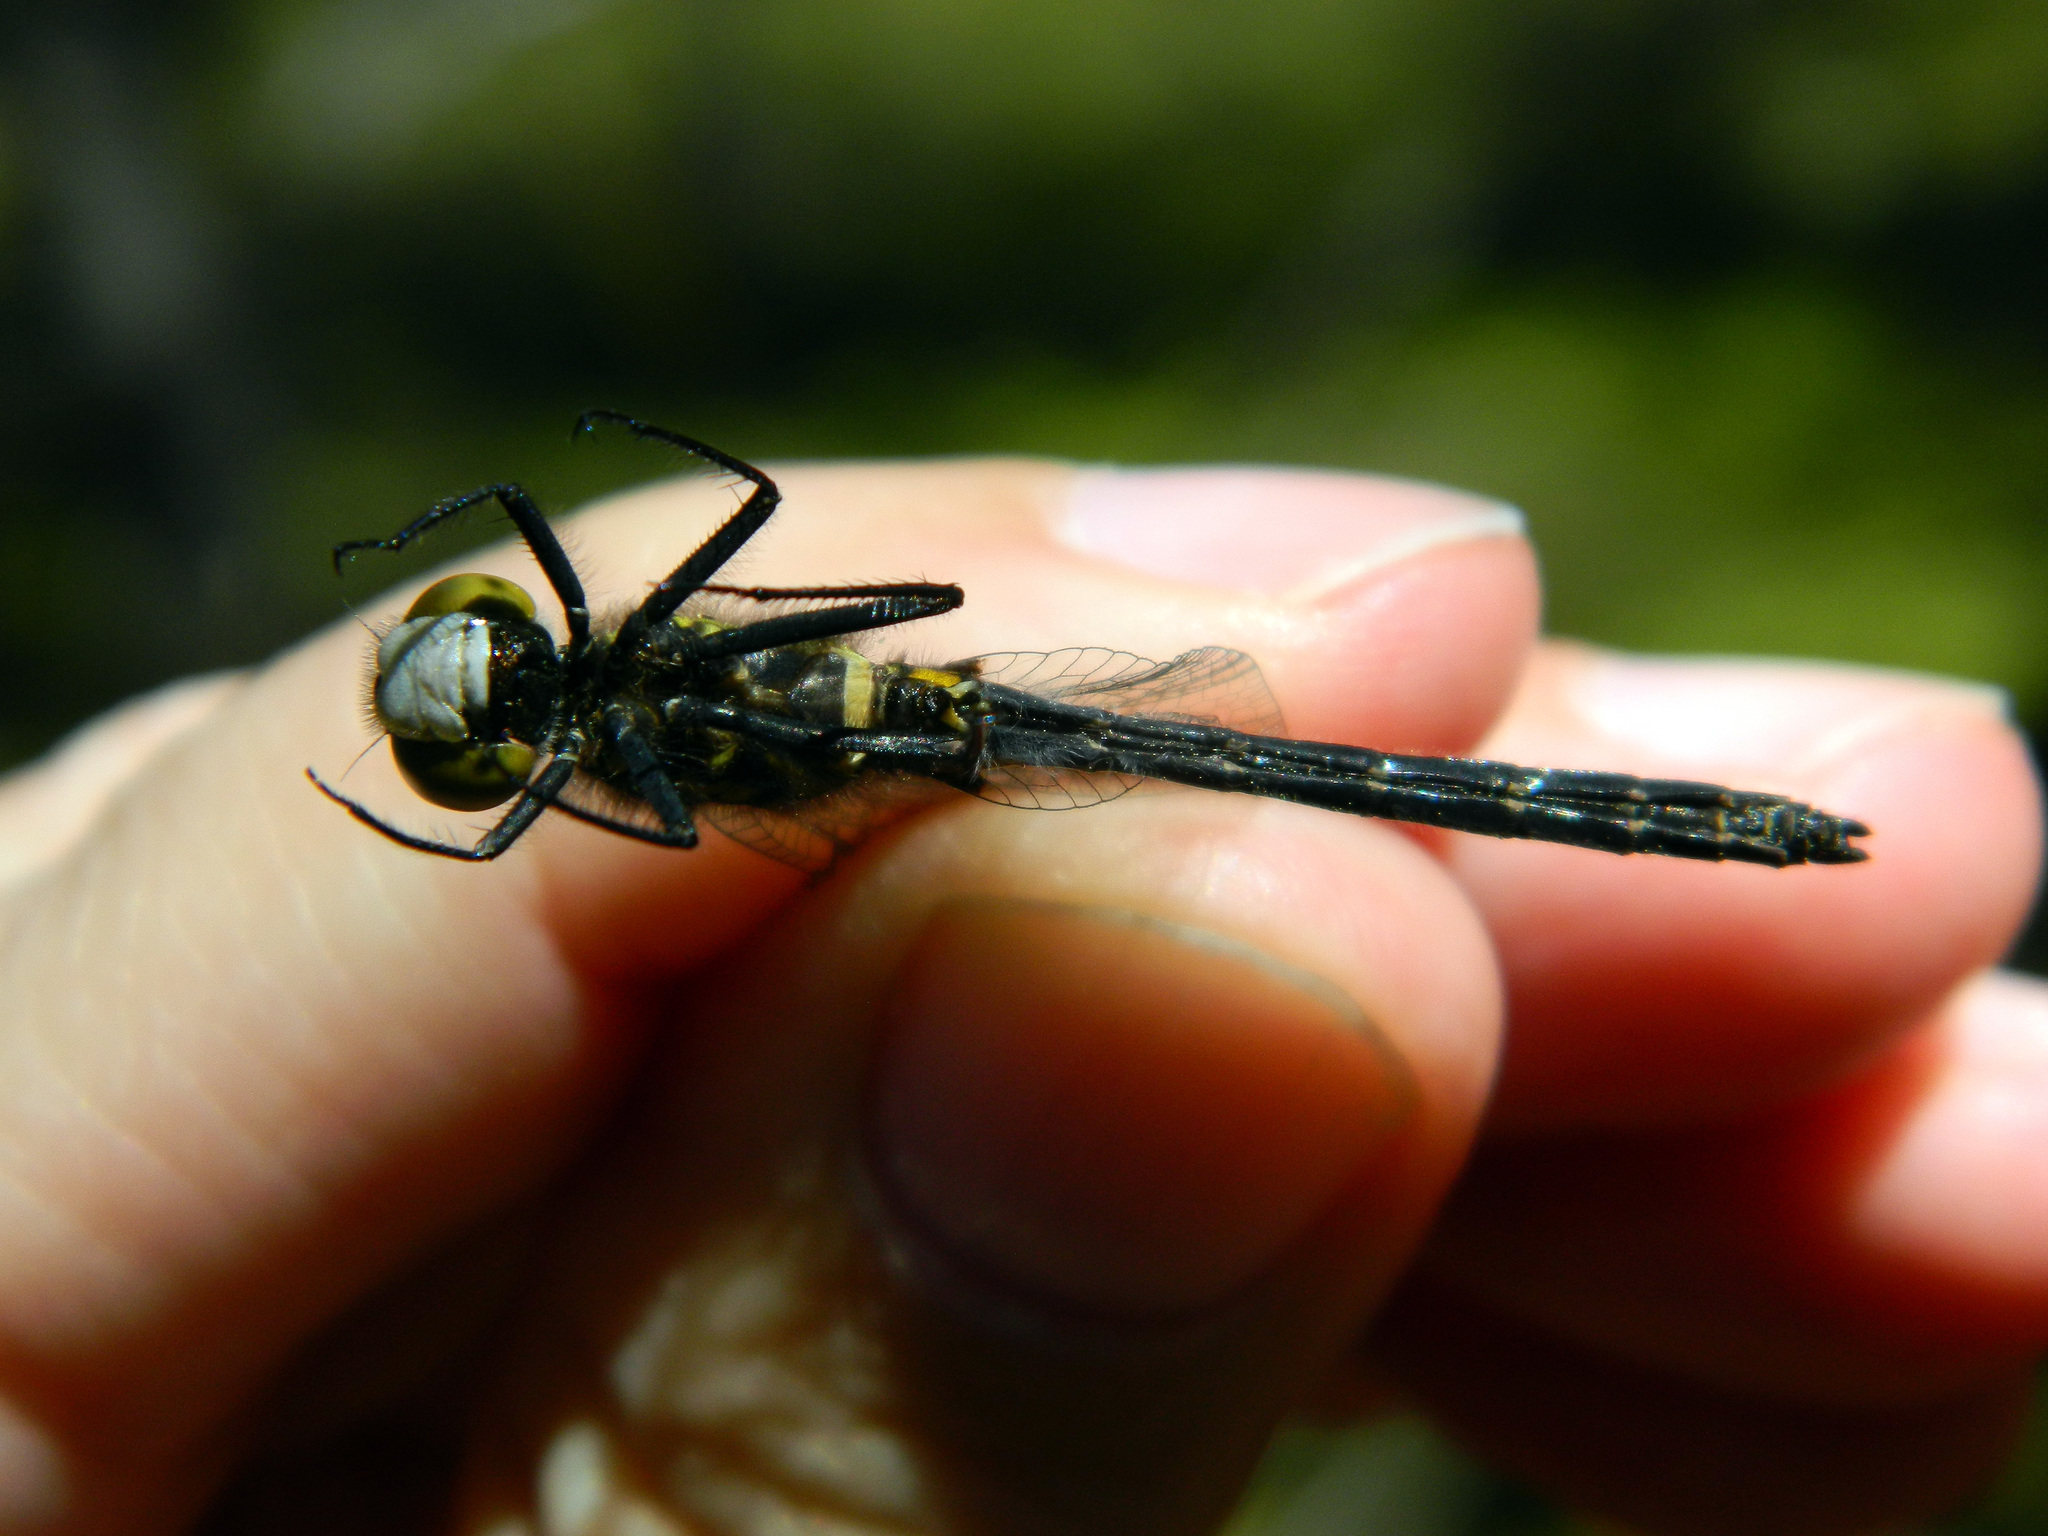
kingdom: Animalia
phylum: Arthropoda
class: Insecta
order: Odonata
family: Libellulidae
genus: Leucorrhinia
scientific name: Leucorrhinia glacialis
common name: Crimson-ringed whiteface
